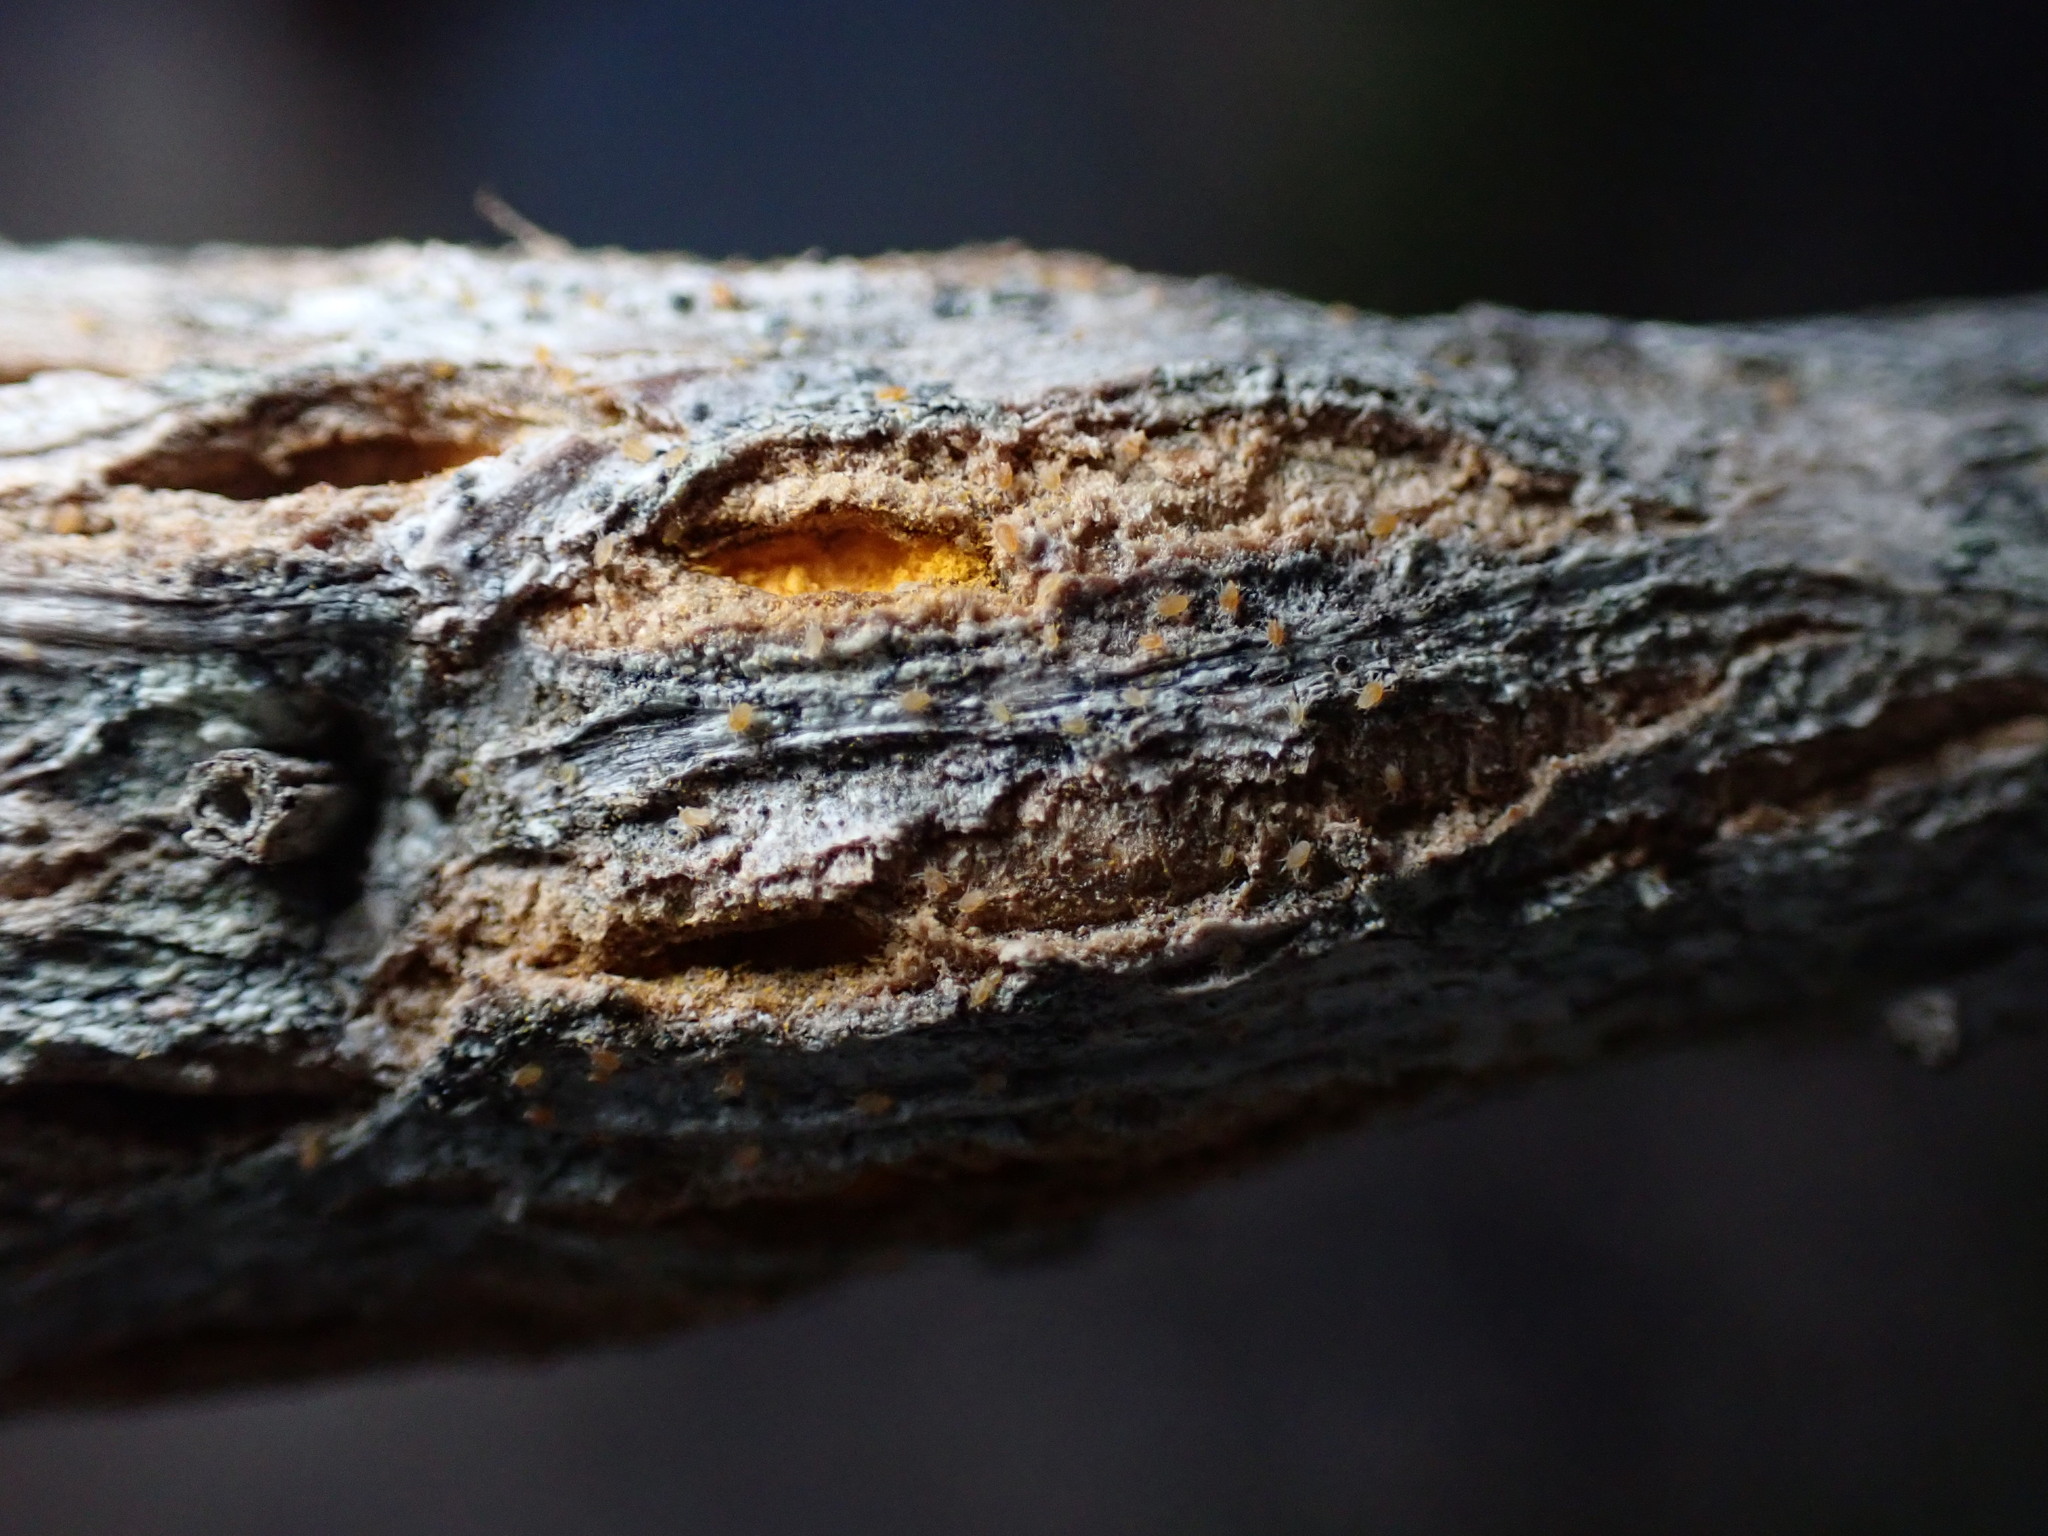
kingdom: Fungi
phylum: Basidiomycota
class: Pucciniomycetes
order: Pucciniales
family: Pucciniaceae
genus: Eriosporangium
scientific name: Eriosporangium evadens
